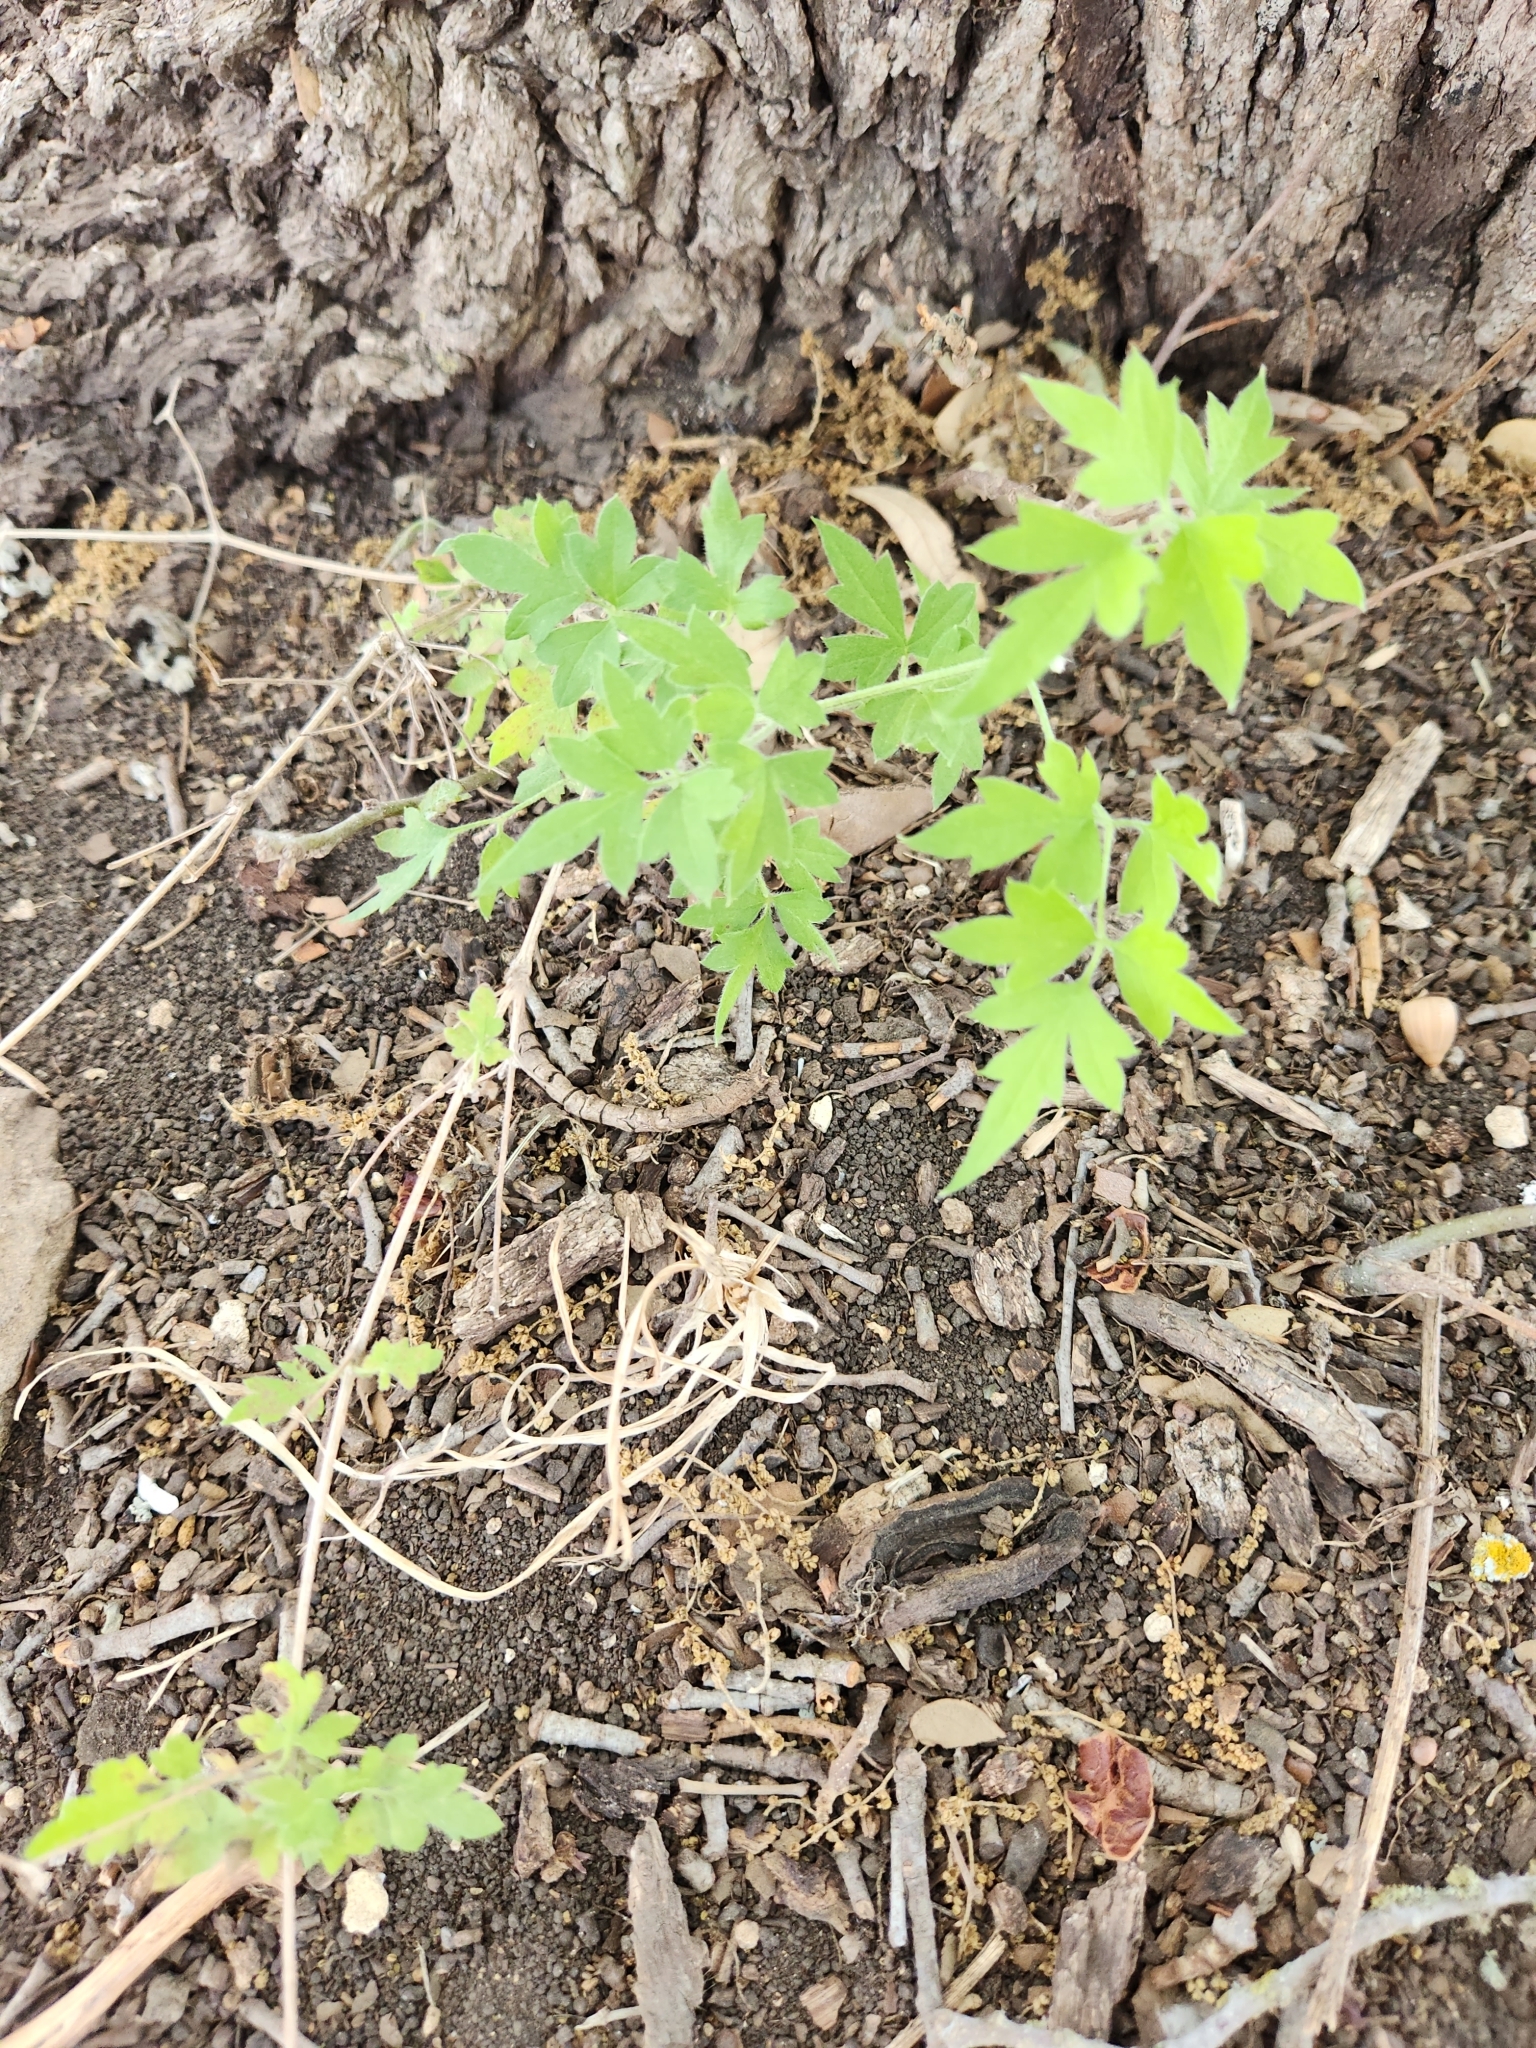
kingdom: Plantae
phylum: Tracheophyta
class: Magnoliopsida
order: Ranunculales
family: Ranunculaceae
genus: Clematis
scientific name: Clematis drummondii
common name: Texas virgin's bower
